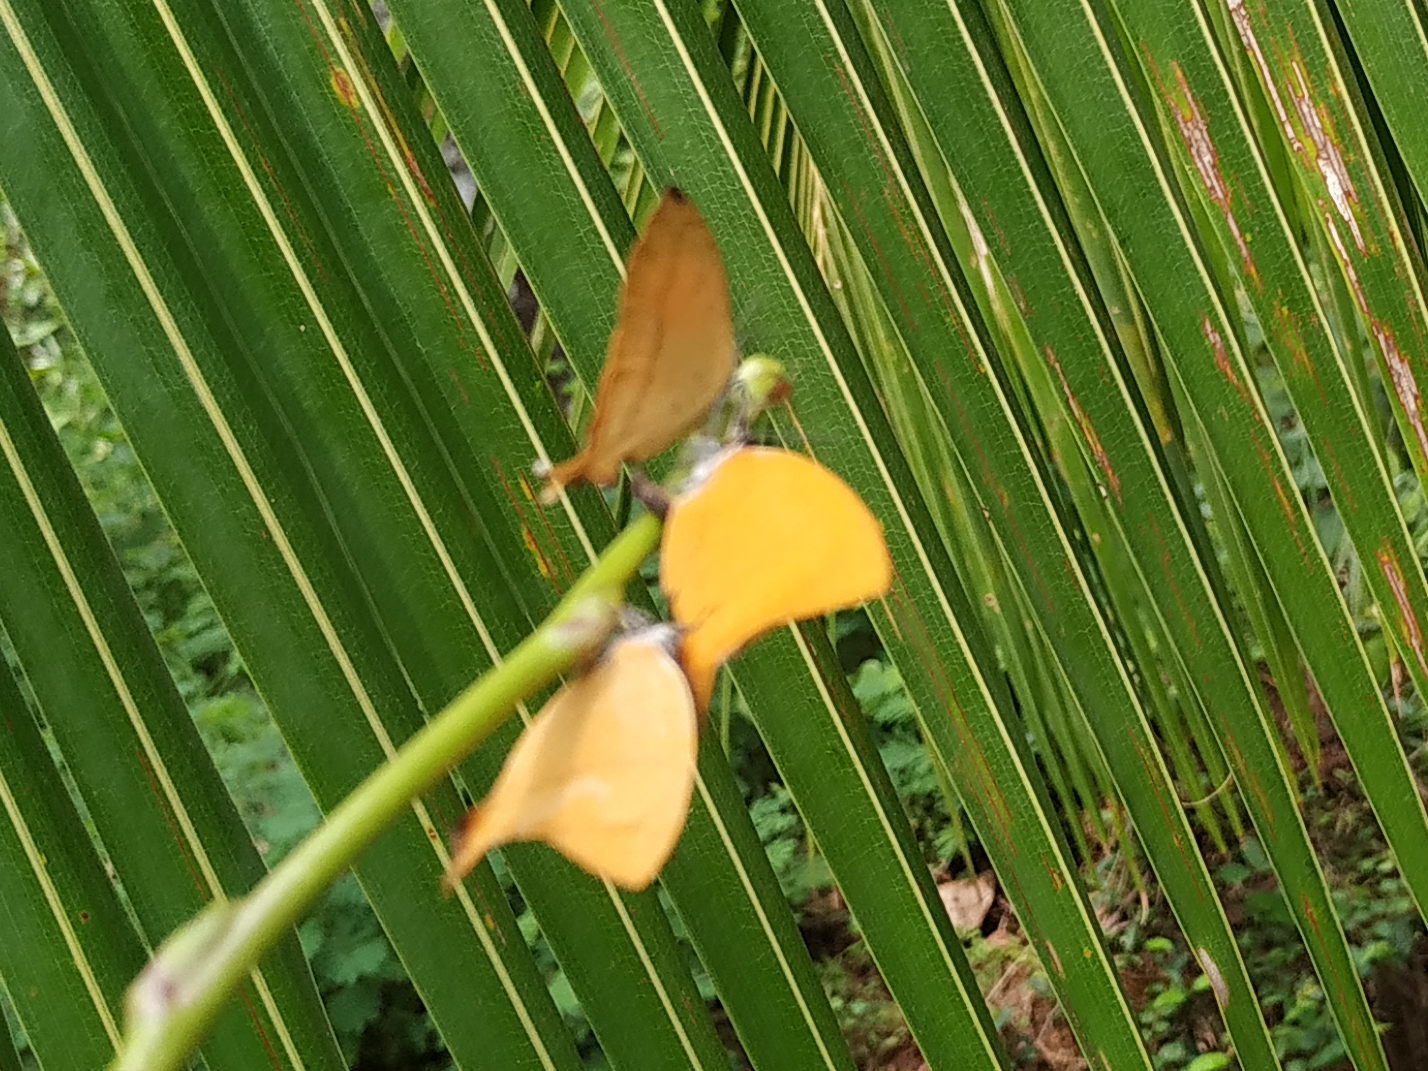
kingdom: Animalia
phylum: Arthropoda
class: Insecta
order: Lepidoptera
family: Lycaenidae
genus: Loxura
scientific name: Loxura atymnus
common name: Common yamfly
